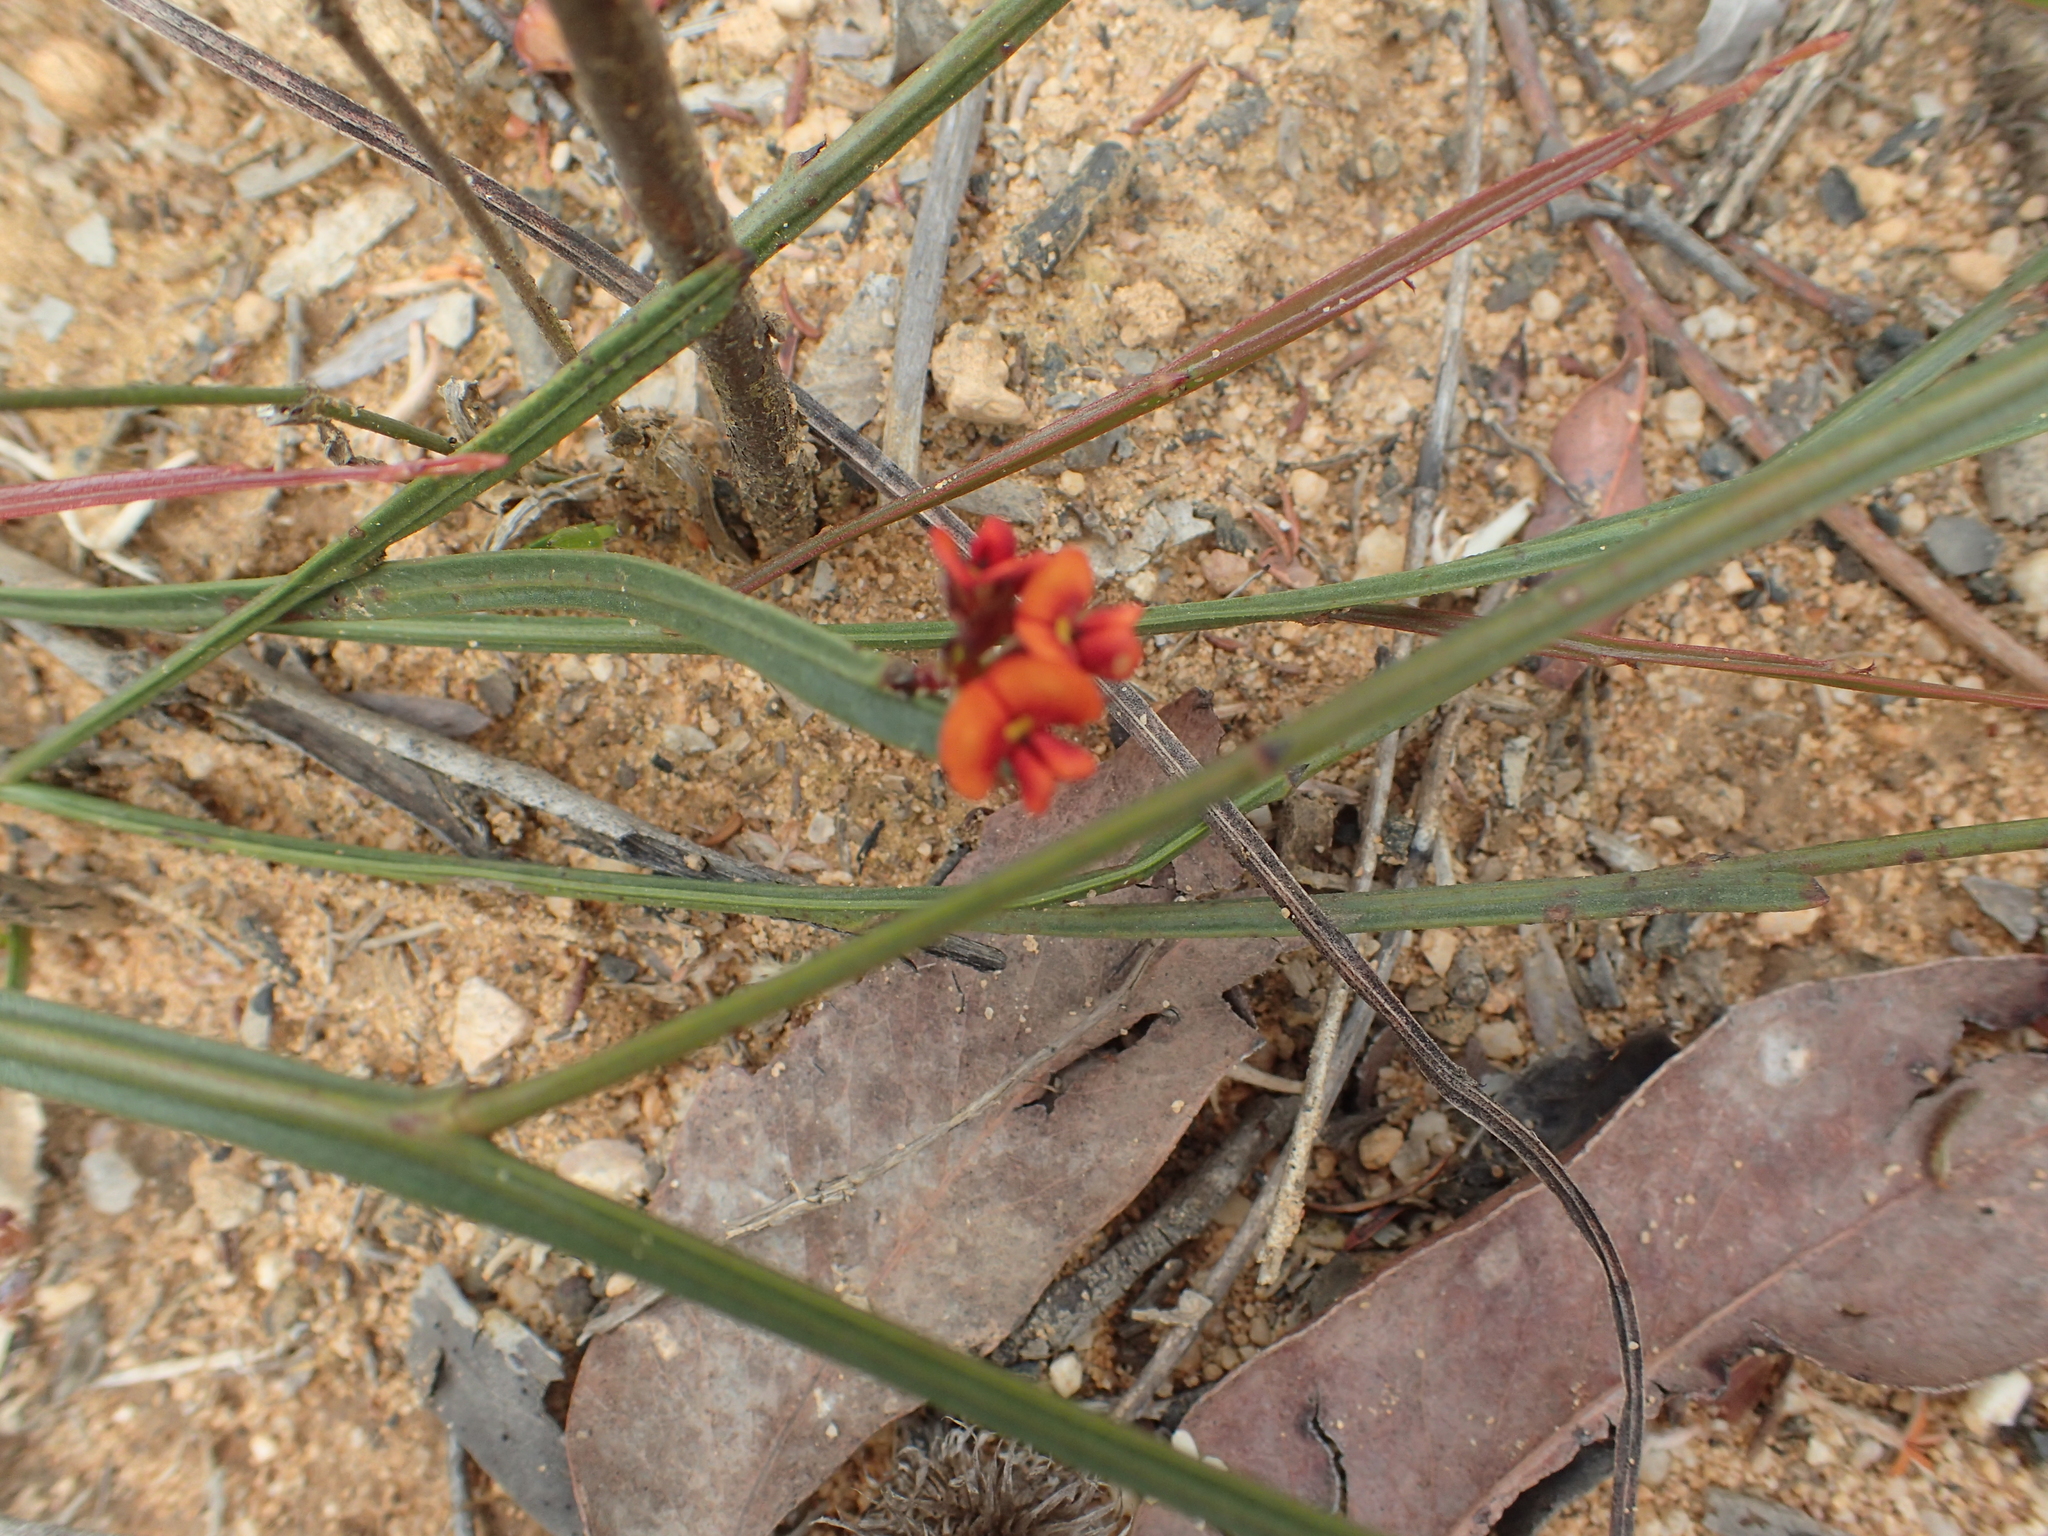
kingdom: Plantae
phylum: Tracheophyta
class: Magnoliopsida
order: Fabales
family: Fabaceae
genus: Daviesia
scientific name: Daviesia alata
